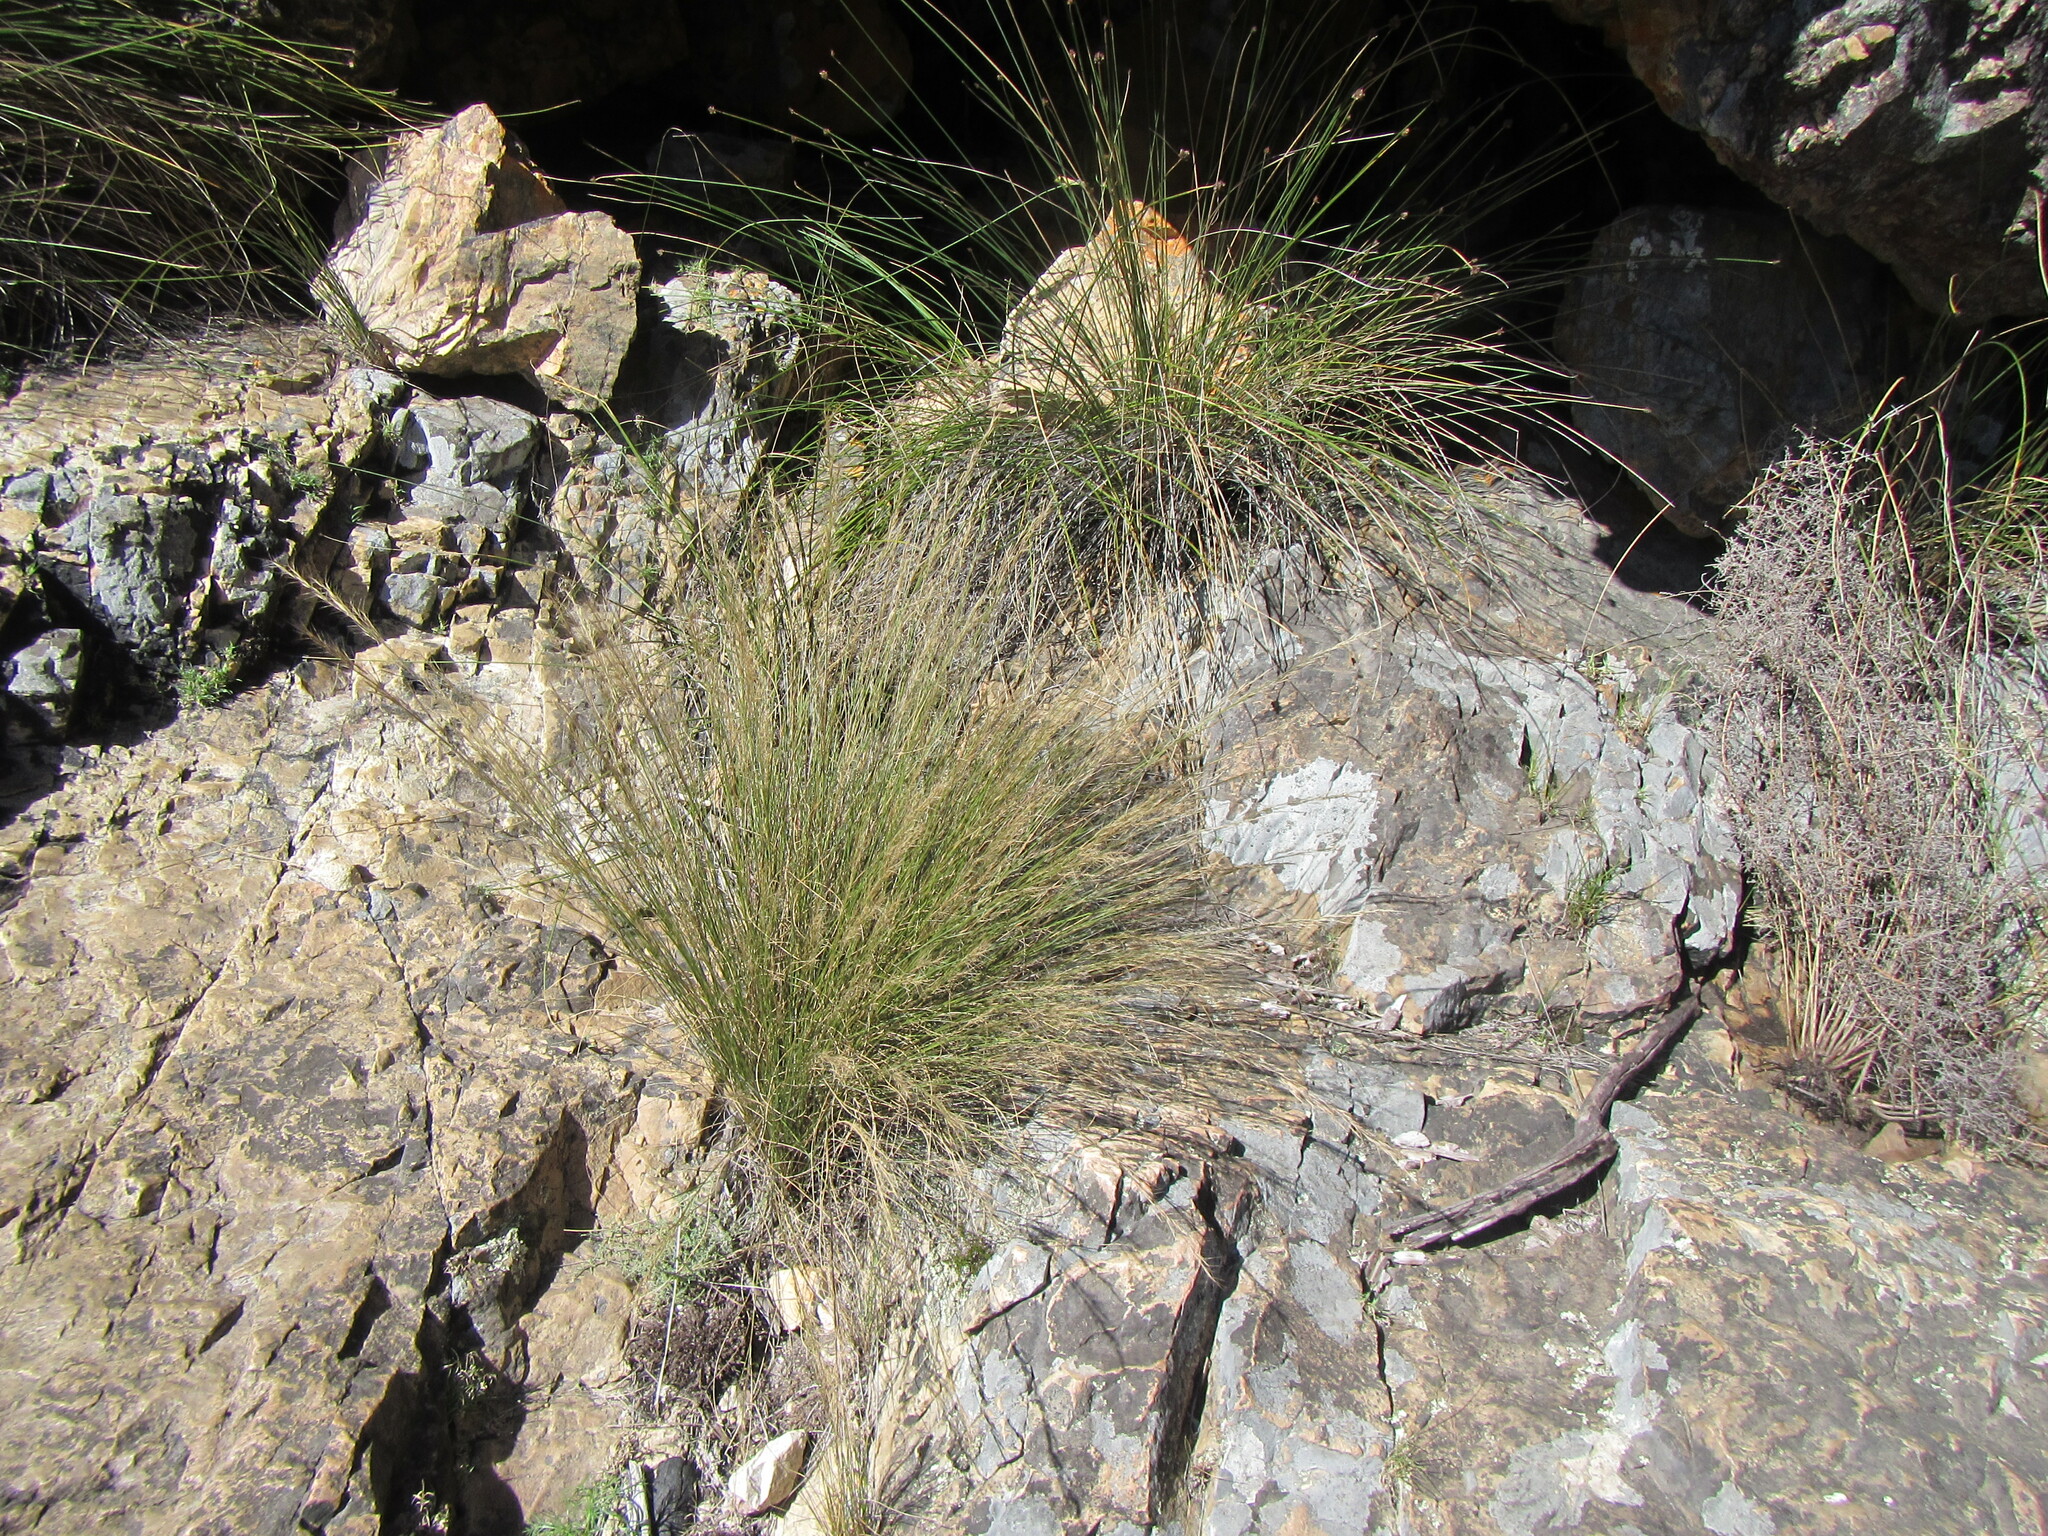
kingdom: Plantae
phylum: Tracheophyta
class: Liliopsida
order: Poales
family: Poaceae
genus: Aristida
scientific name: Aristida junciformis
